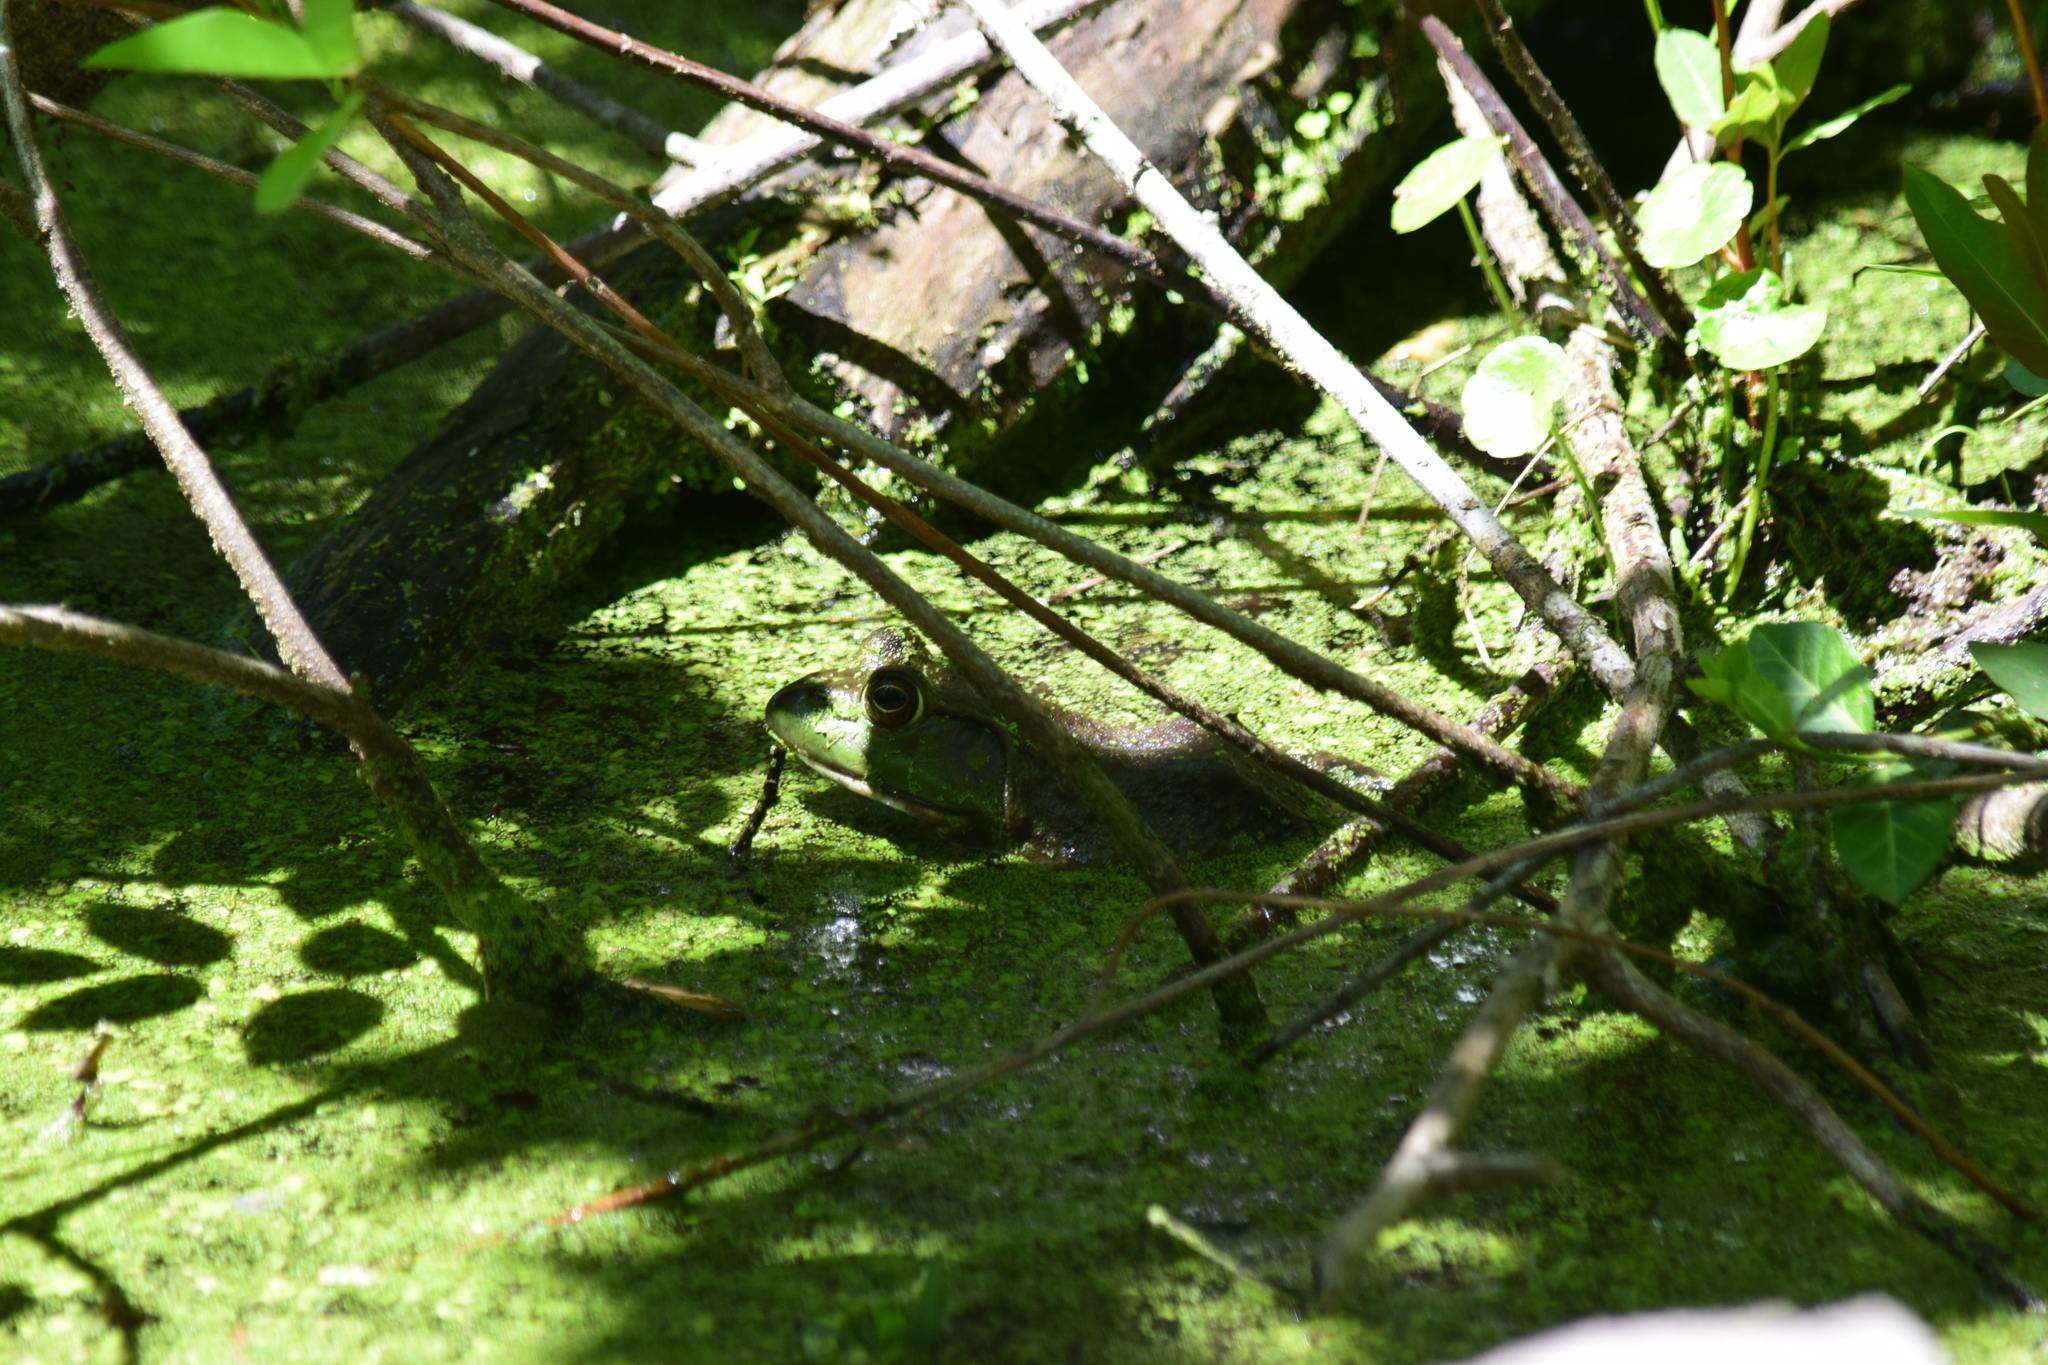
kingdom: Animalia
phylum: Chordata
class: Amphibia
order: Anura
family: Ranidae
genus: Lithobates
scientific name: Lithobates catesbeianus
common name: American bullfrog
